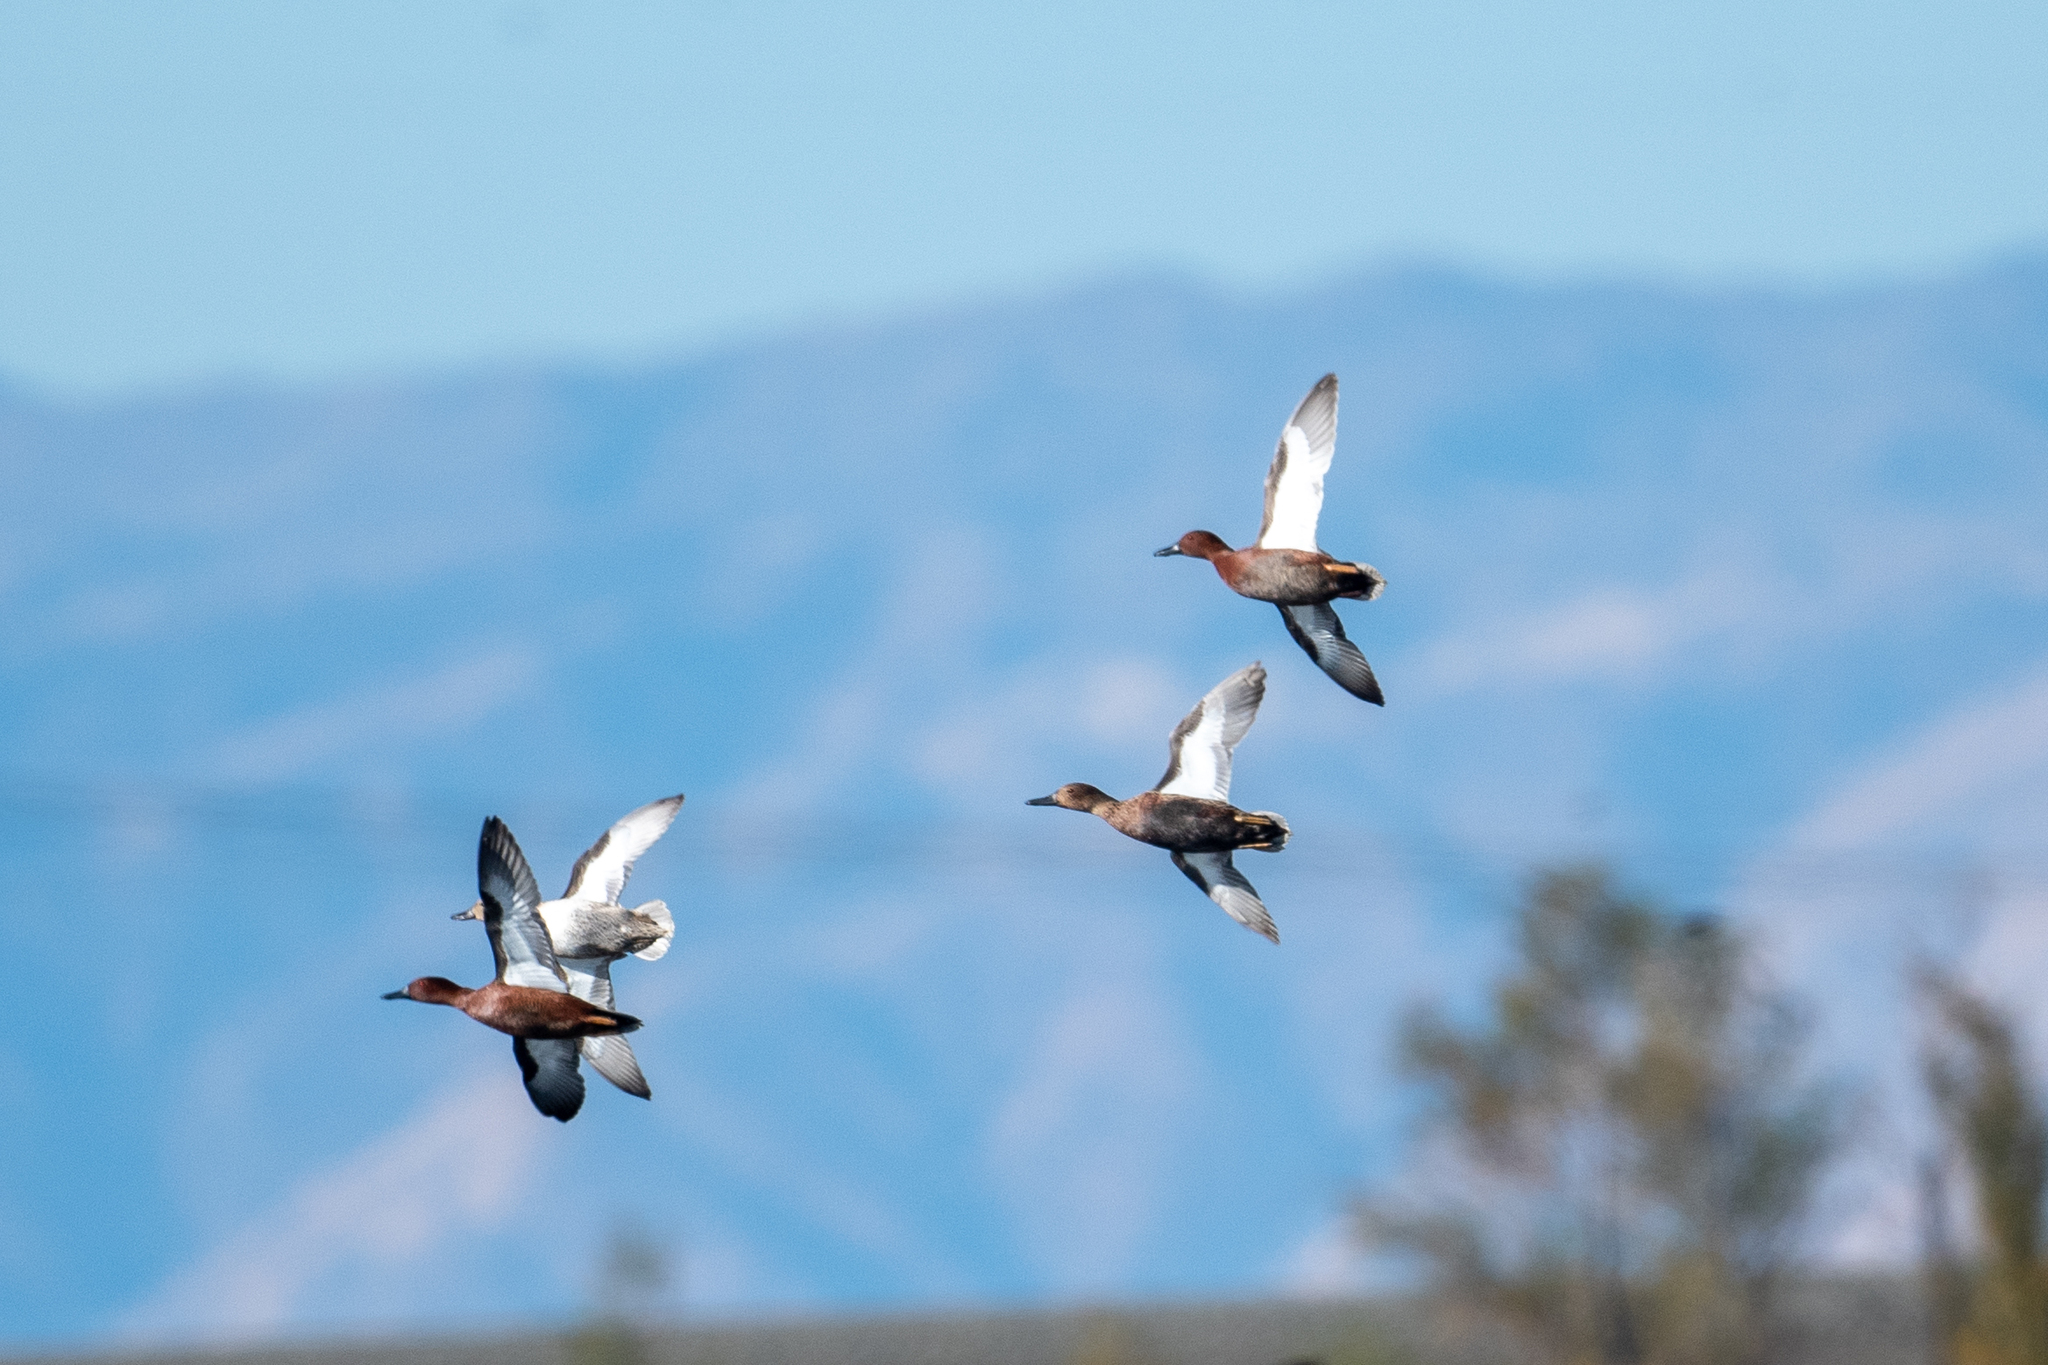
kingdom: Animalia
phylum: Chordata
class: Aves
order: Anseriformes
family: Anatidae
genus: Spatula
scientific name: Spatula cyanoptera
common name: Cinnamon teal
